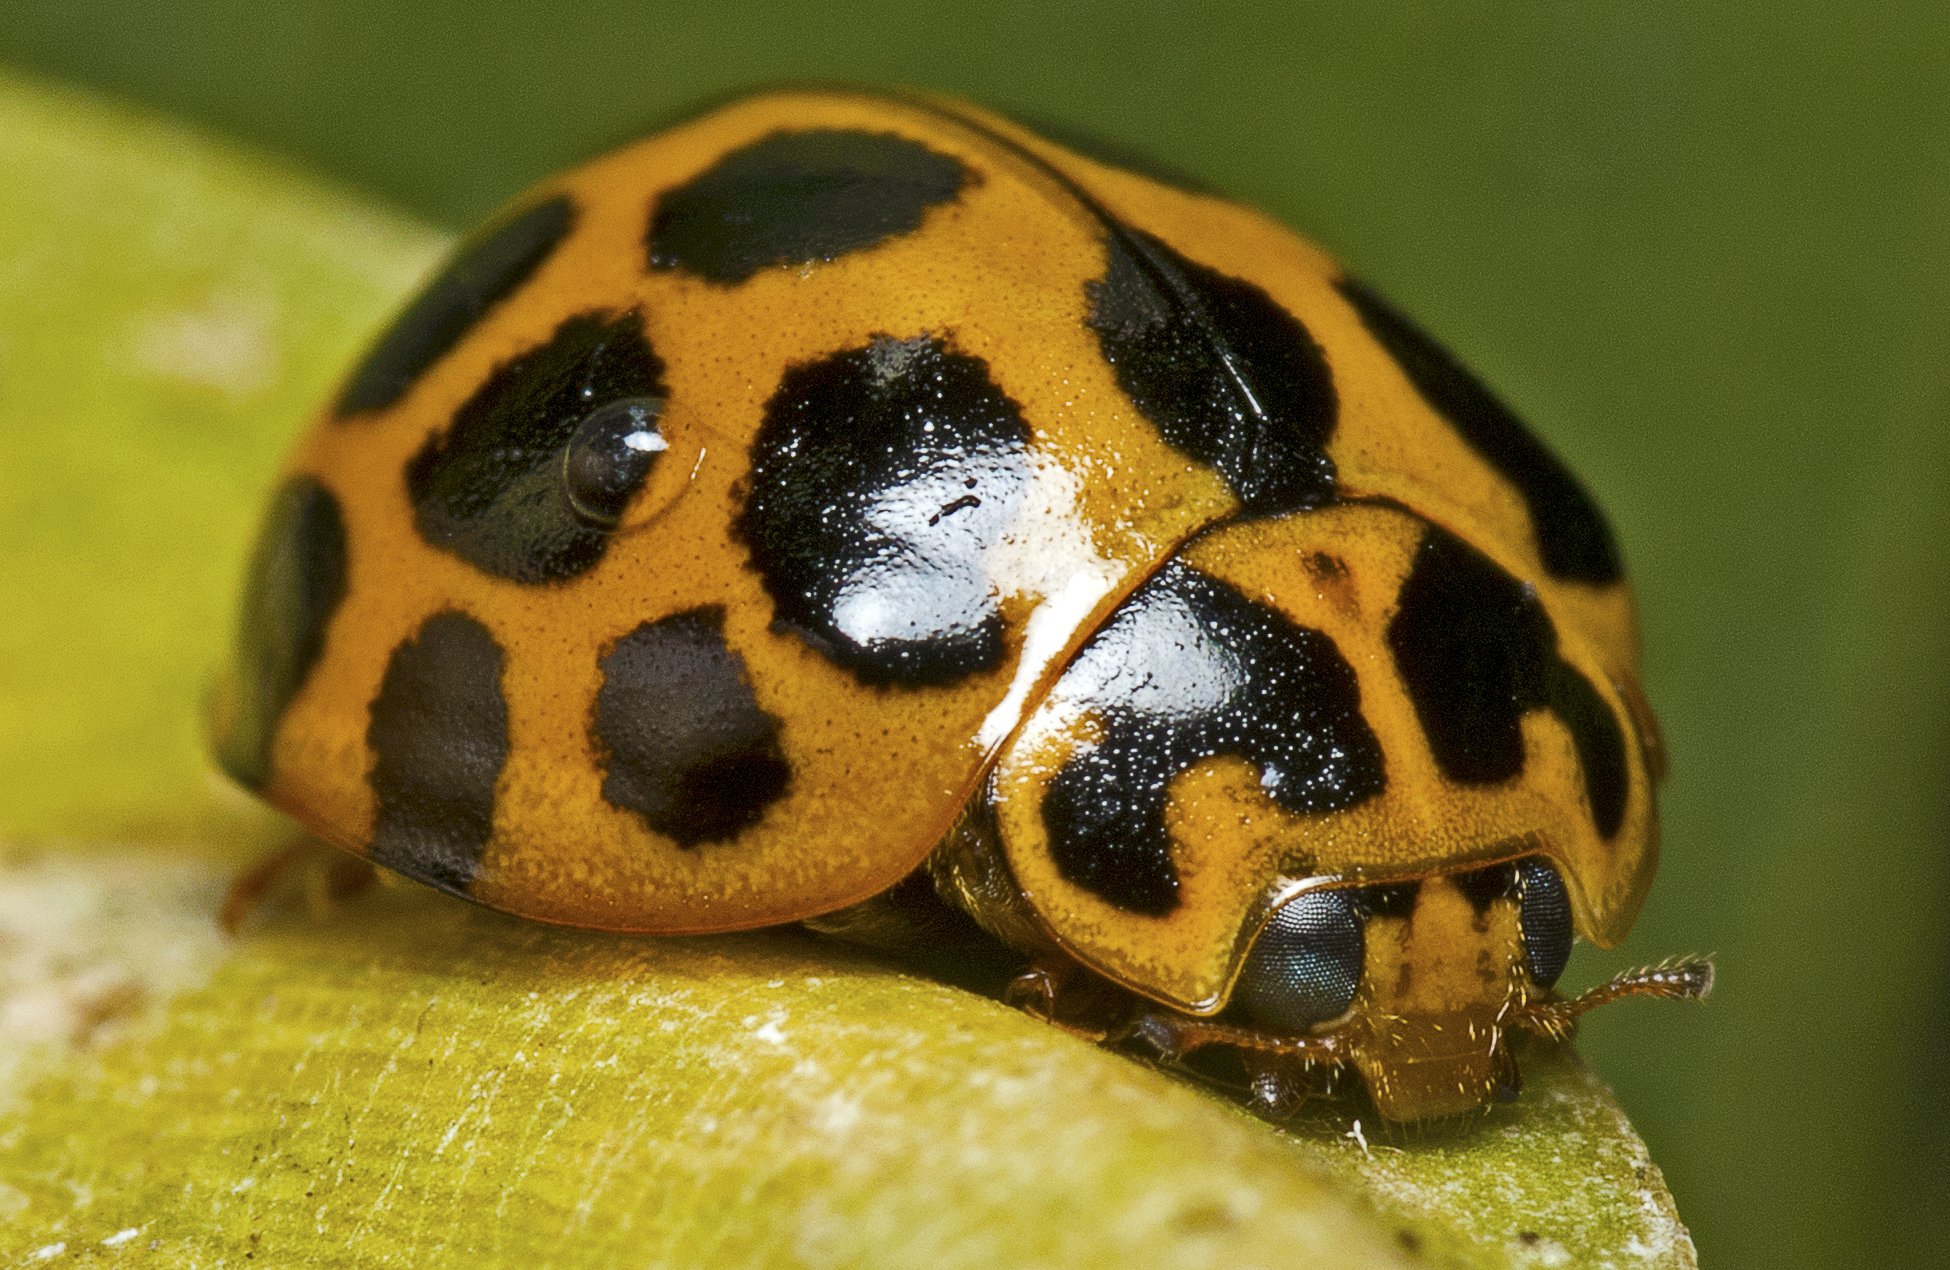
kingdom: Animalia
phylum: Arthropoda
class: Insecta
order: Coleoptera
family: Coccinellidae
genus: Harmonia
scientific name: Harmonia conformis
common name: Common spotted ladybird beetle
